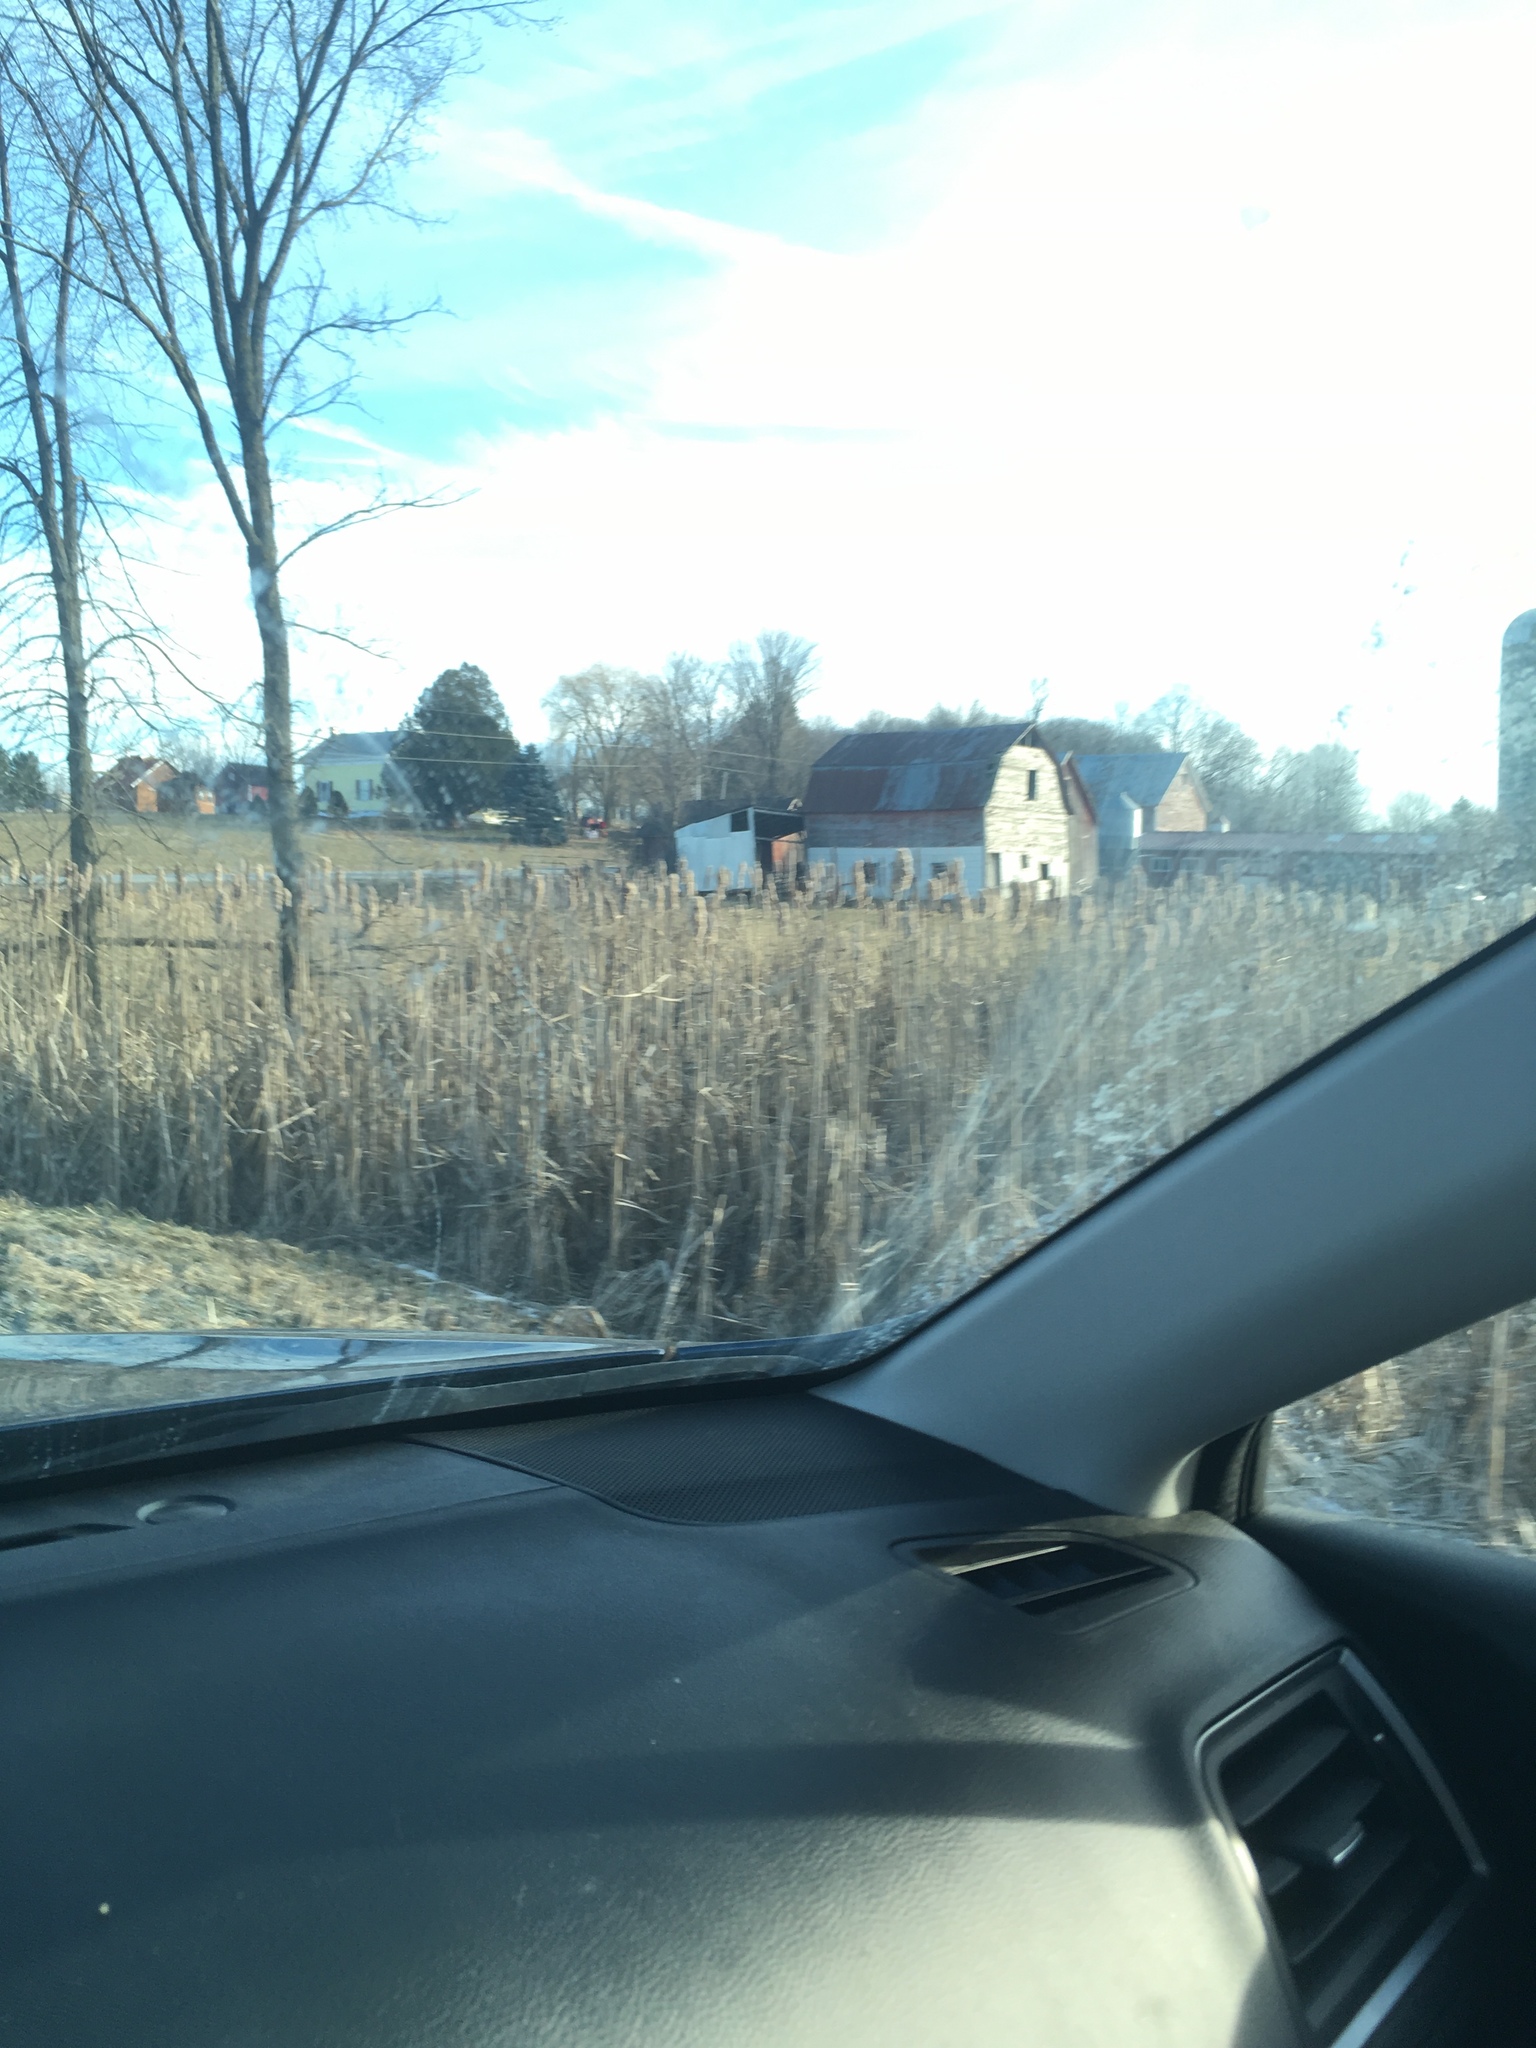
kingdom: Plantae
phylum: Tracheophyta
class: Liliopsida
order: Poales
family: Typhaceae
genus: Typha
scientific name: Typha
